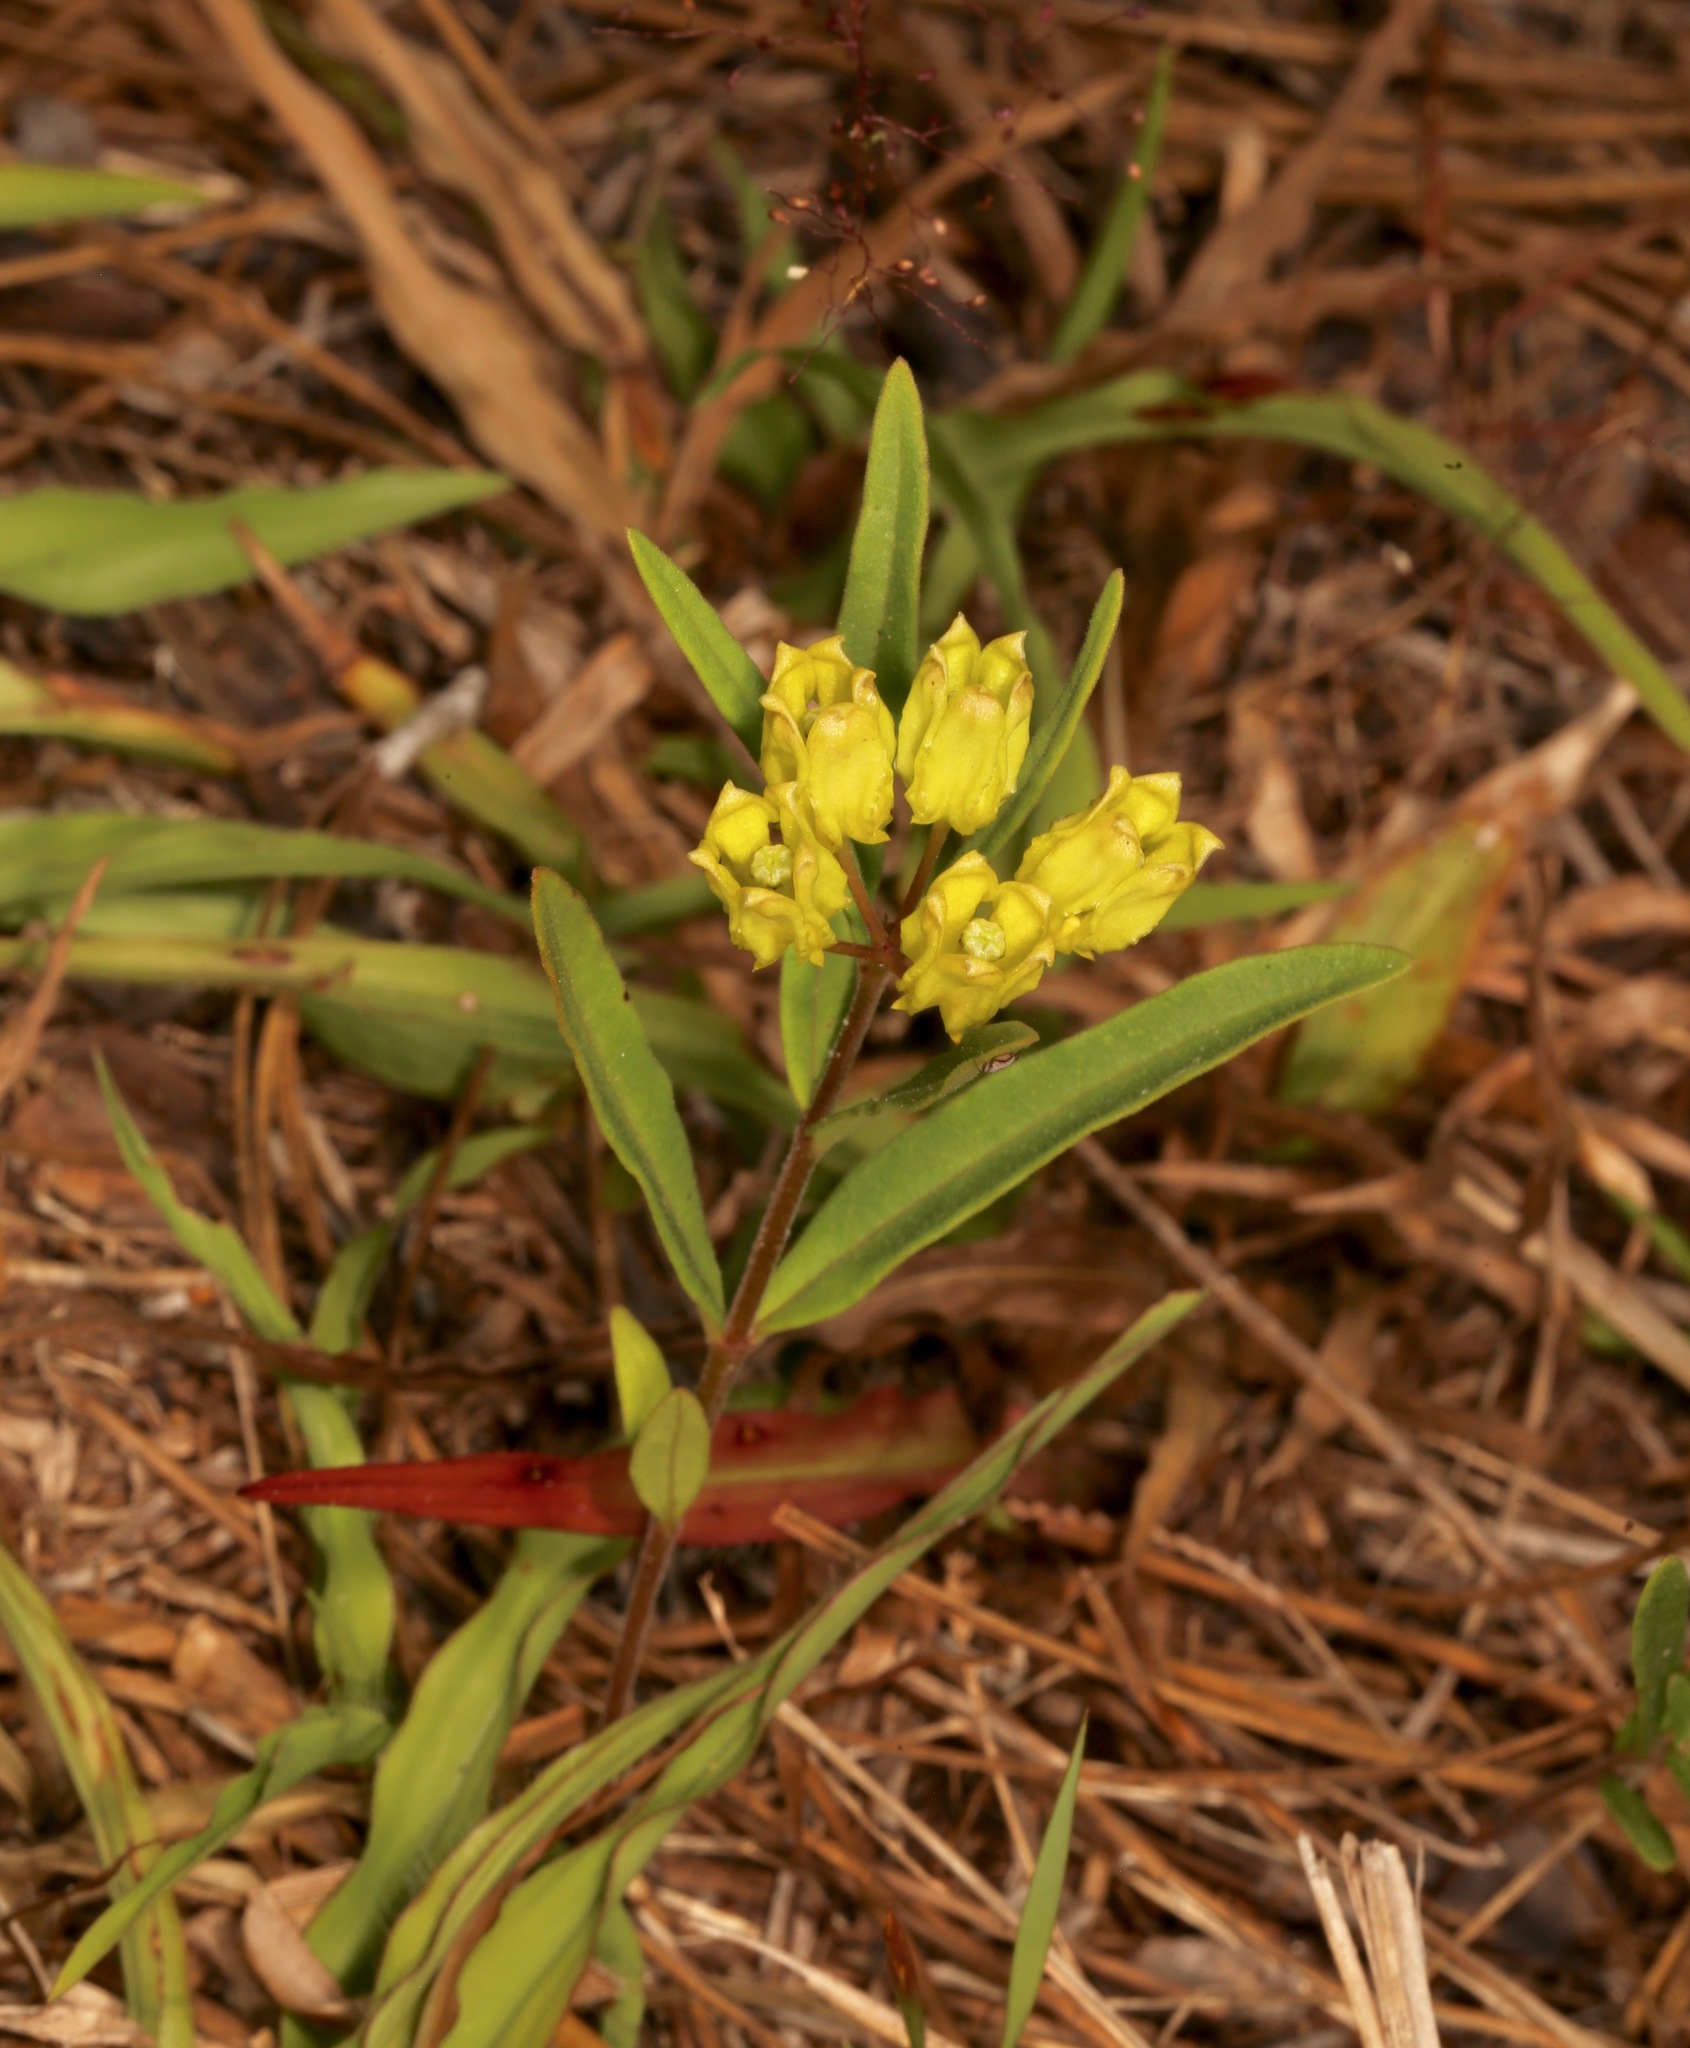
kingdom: Plantae
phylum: Tracheophyta
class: Magnoliopsida
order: Gentianales
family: Apocynaceae
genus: Asclepias
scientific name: Asclepias pedicellata
